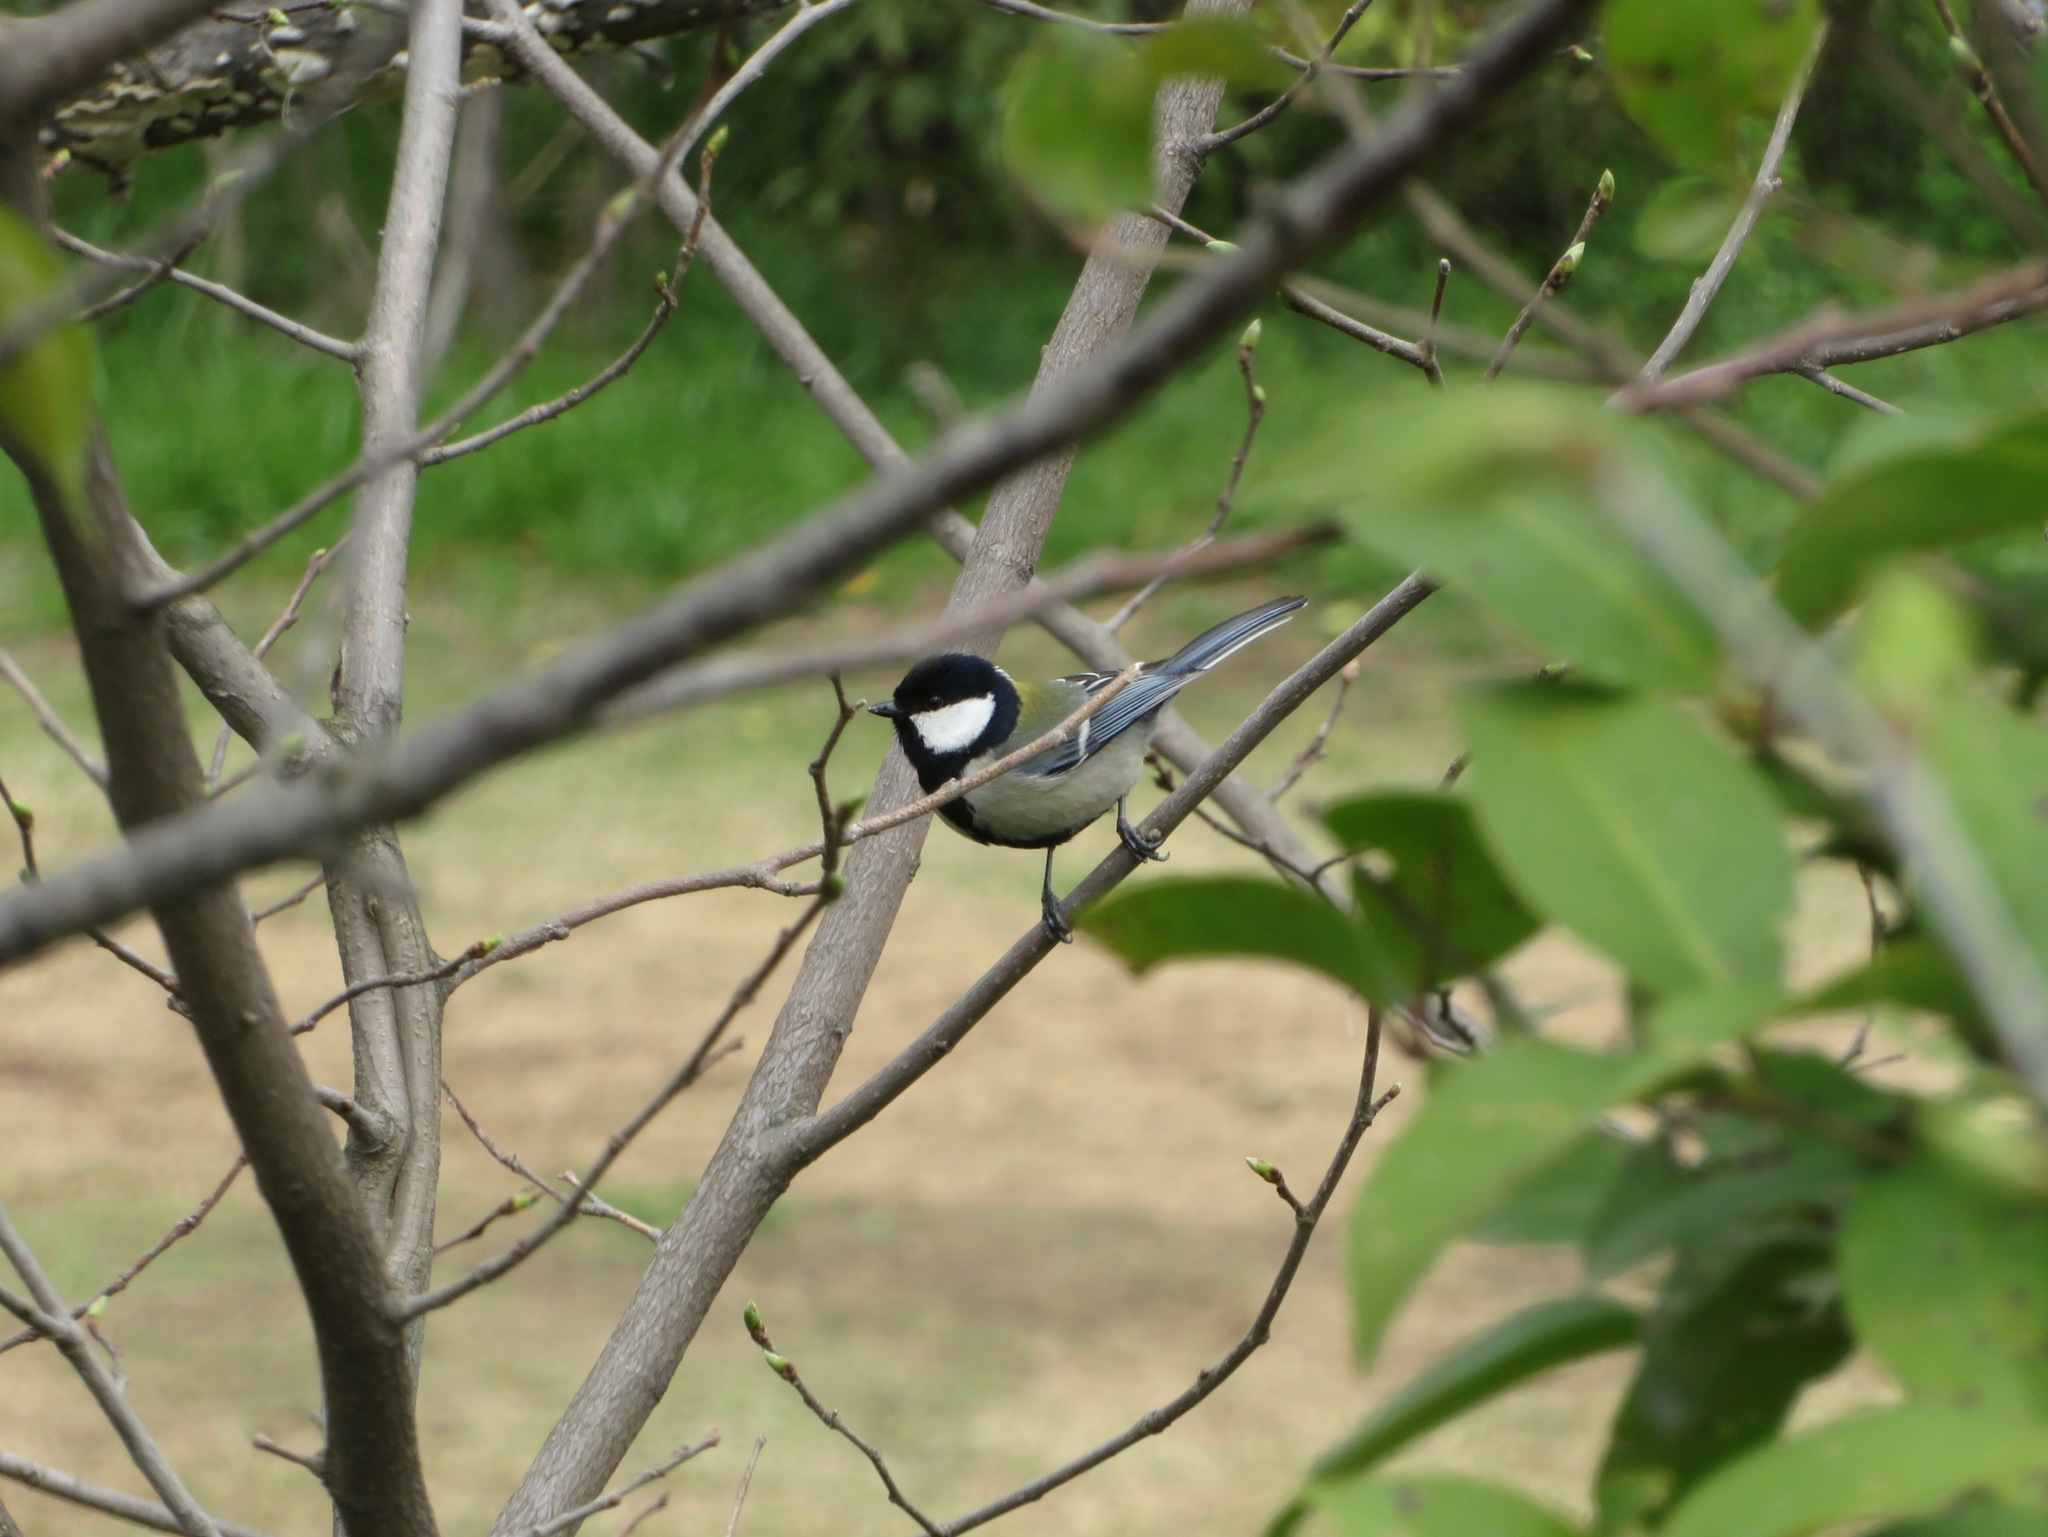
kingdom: Animalia
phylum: Chordata
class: Aves
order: Passeriformes
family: Paridae
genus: Parus
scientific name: Parus minor
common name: Japanese tit
